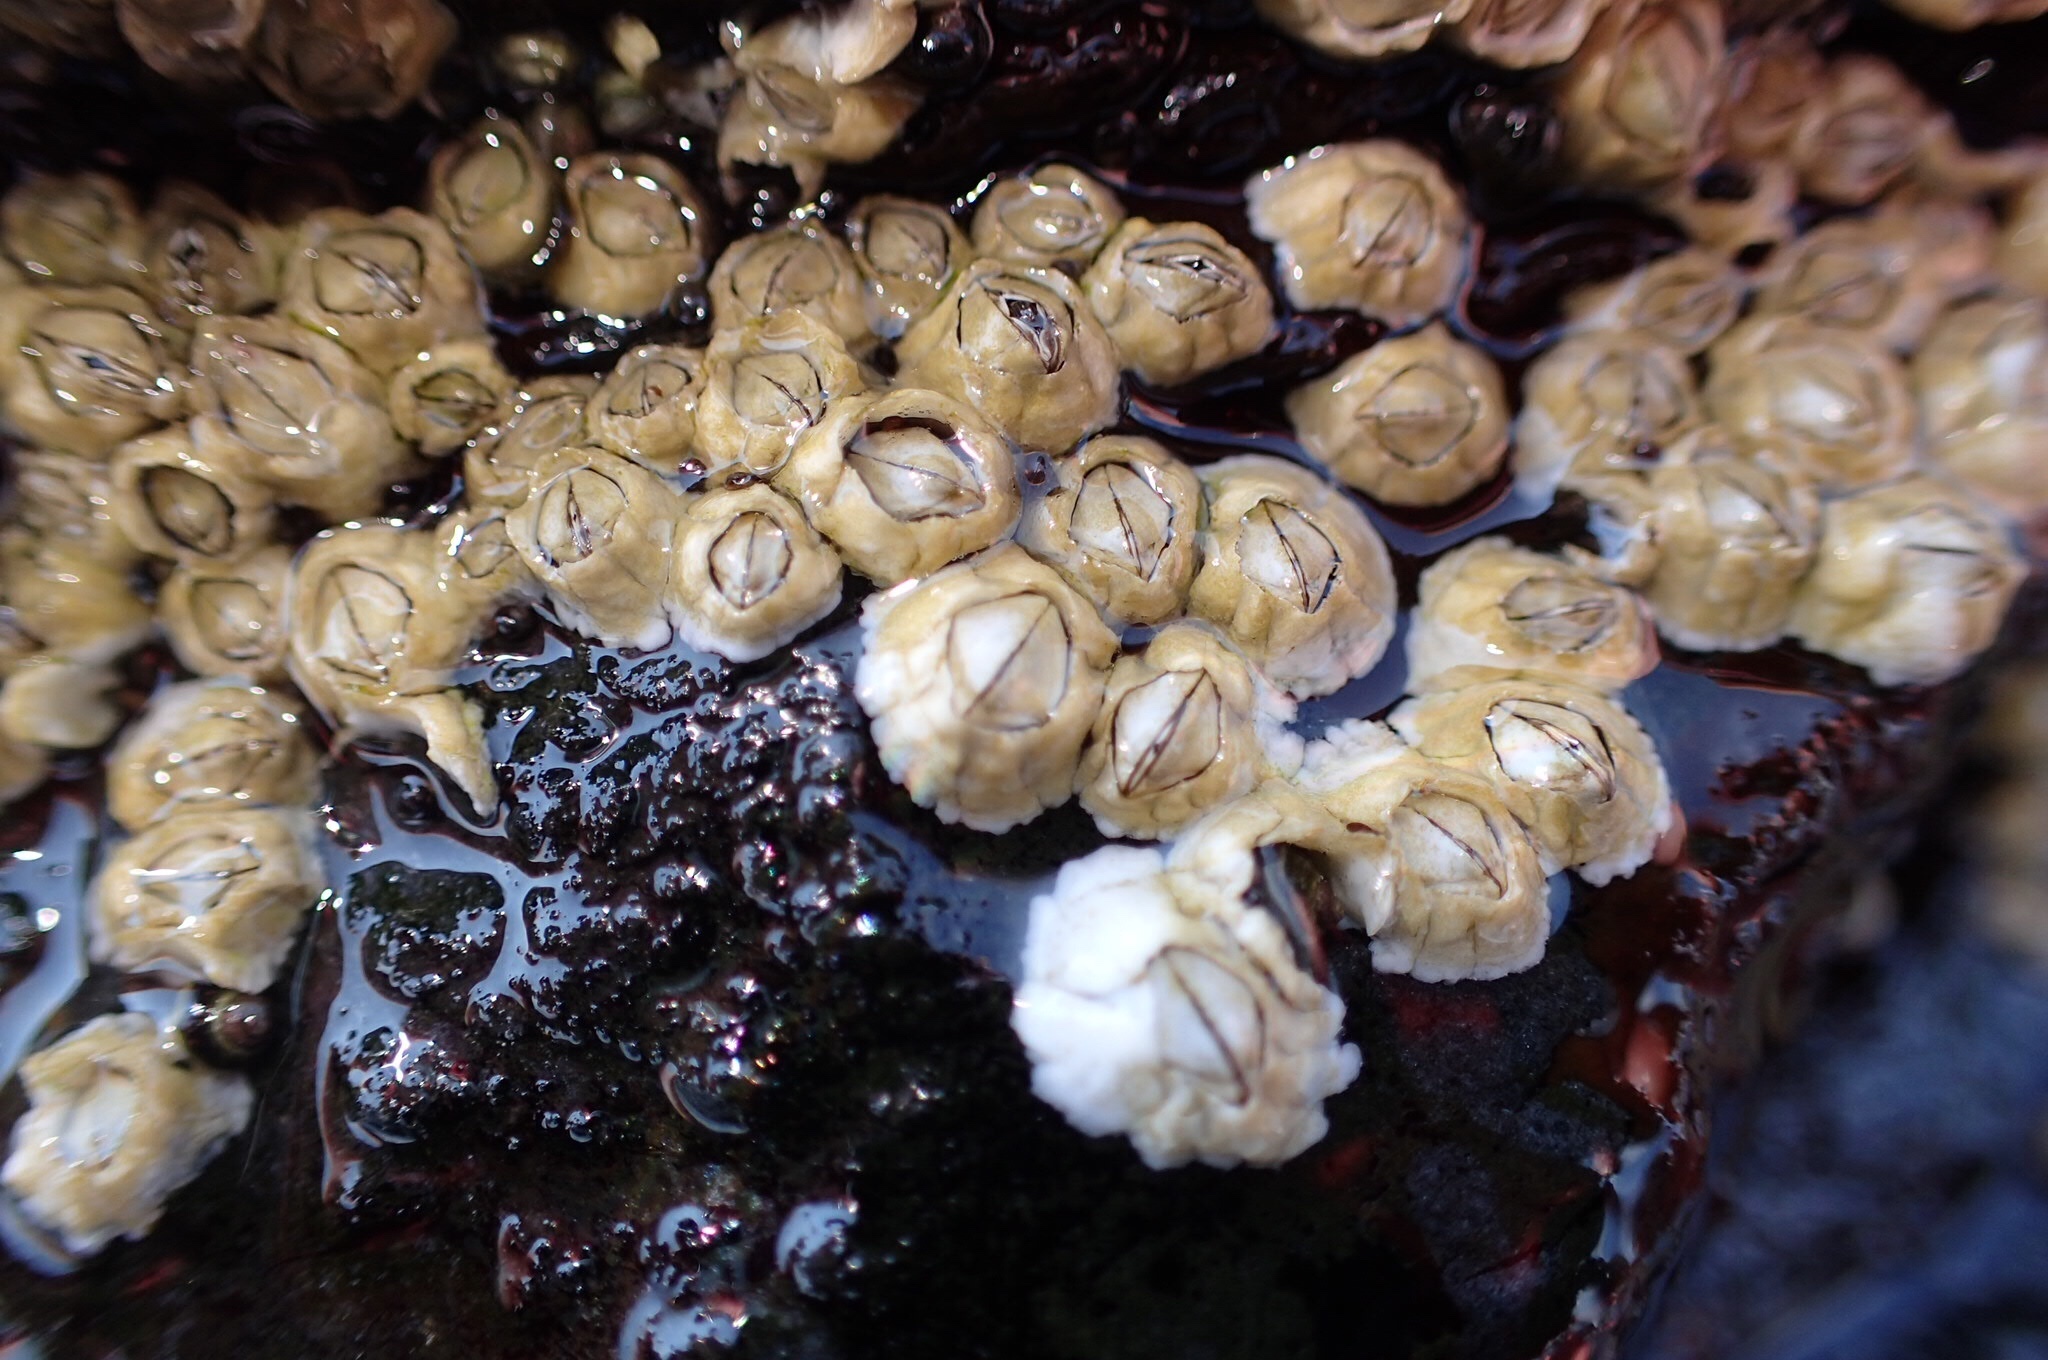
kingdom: Animalia
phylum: Arthropoda
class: Maxillopoda
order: Sessilia
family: Archaeobalanidae
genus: Semibalanus
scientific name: Semibalanus balanoides
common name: Acorn barnacle
